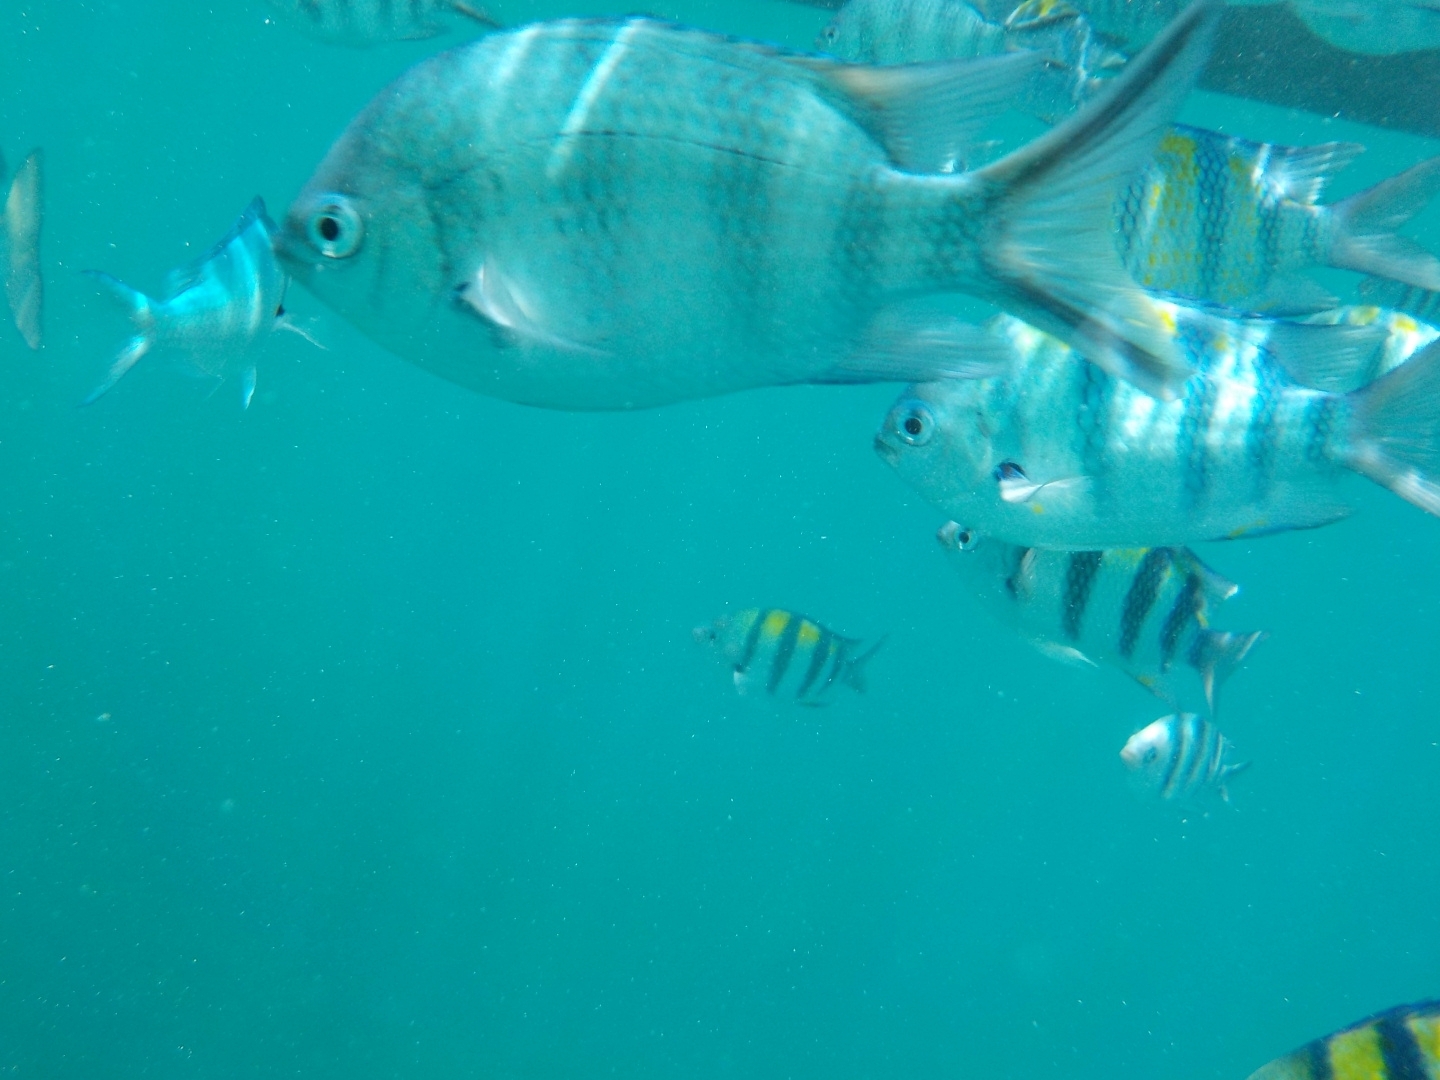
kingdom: Animalia
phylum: Chordata
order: Perciformes
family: Pomacentridae
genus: Abudefduf
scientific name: Abudefduf sexfasciatus
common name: Scissortail sergeant
